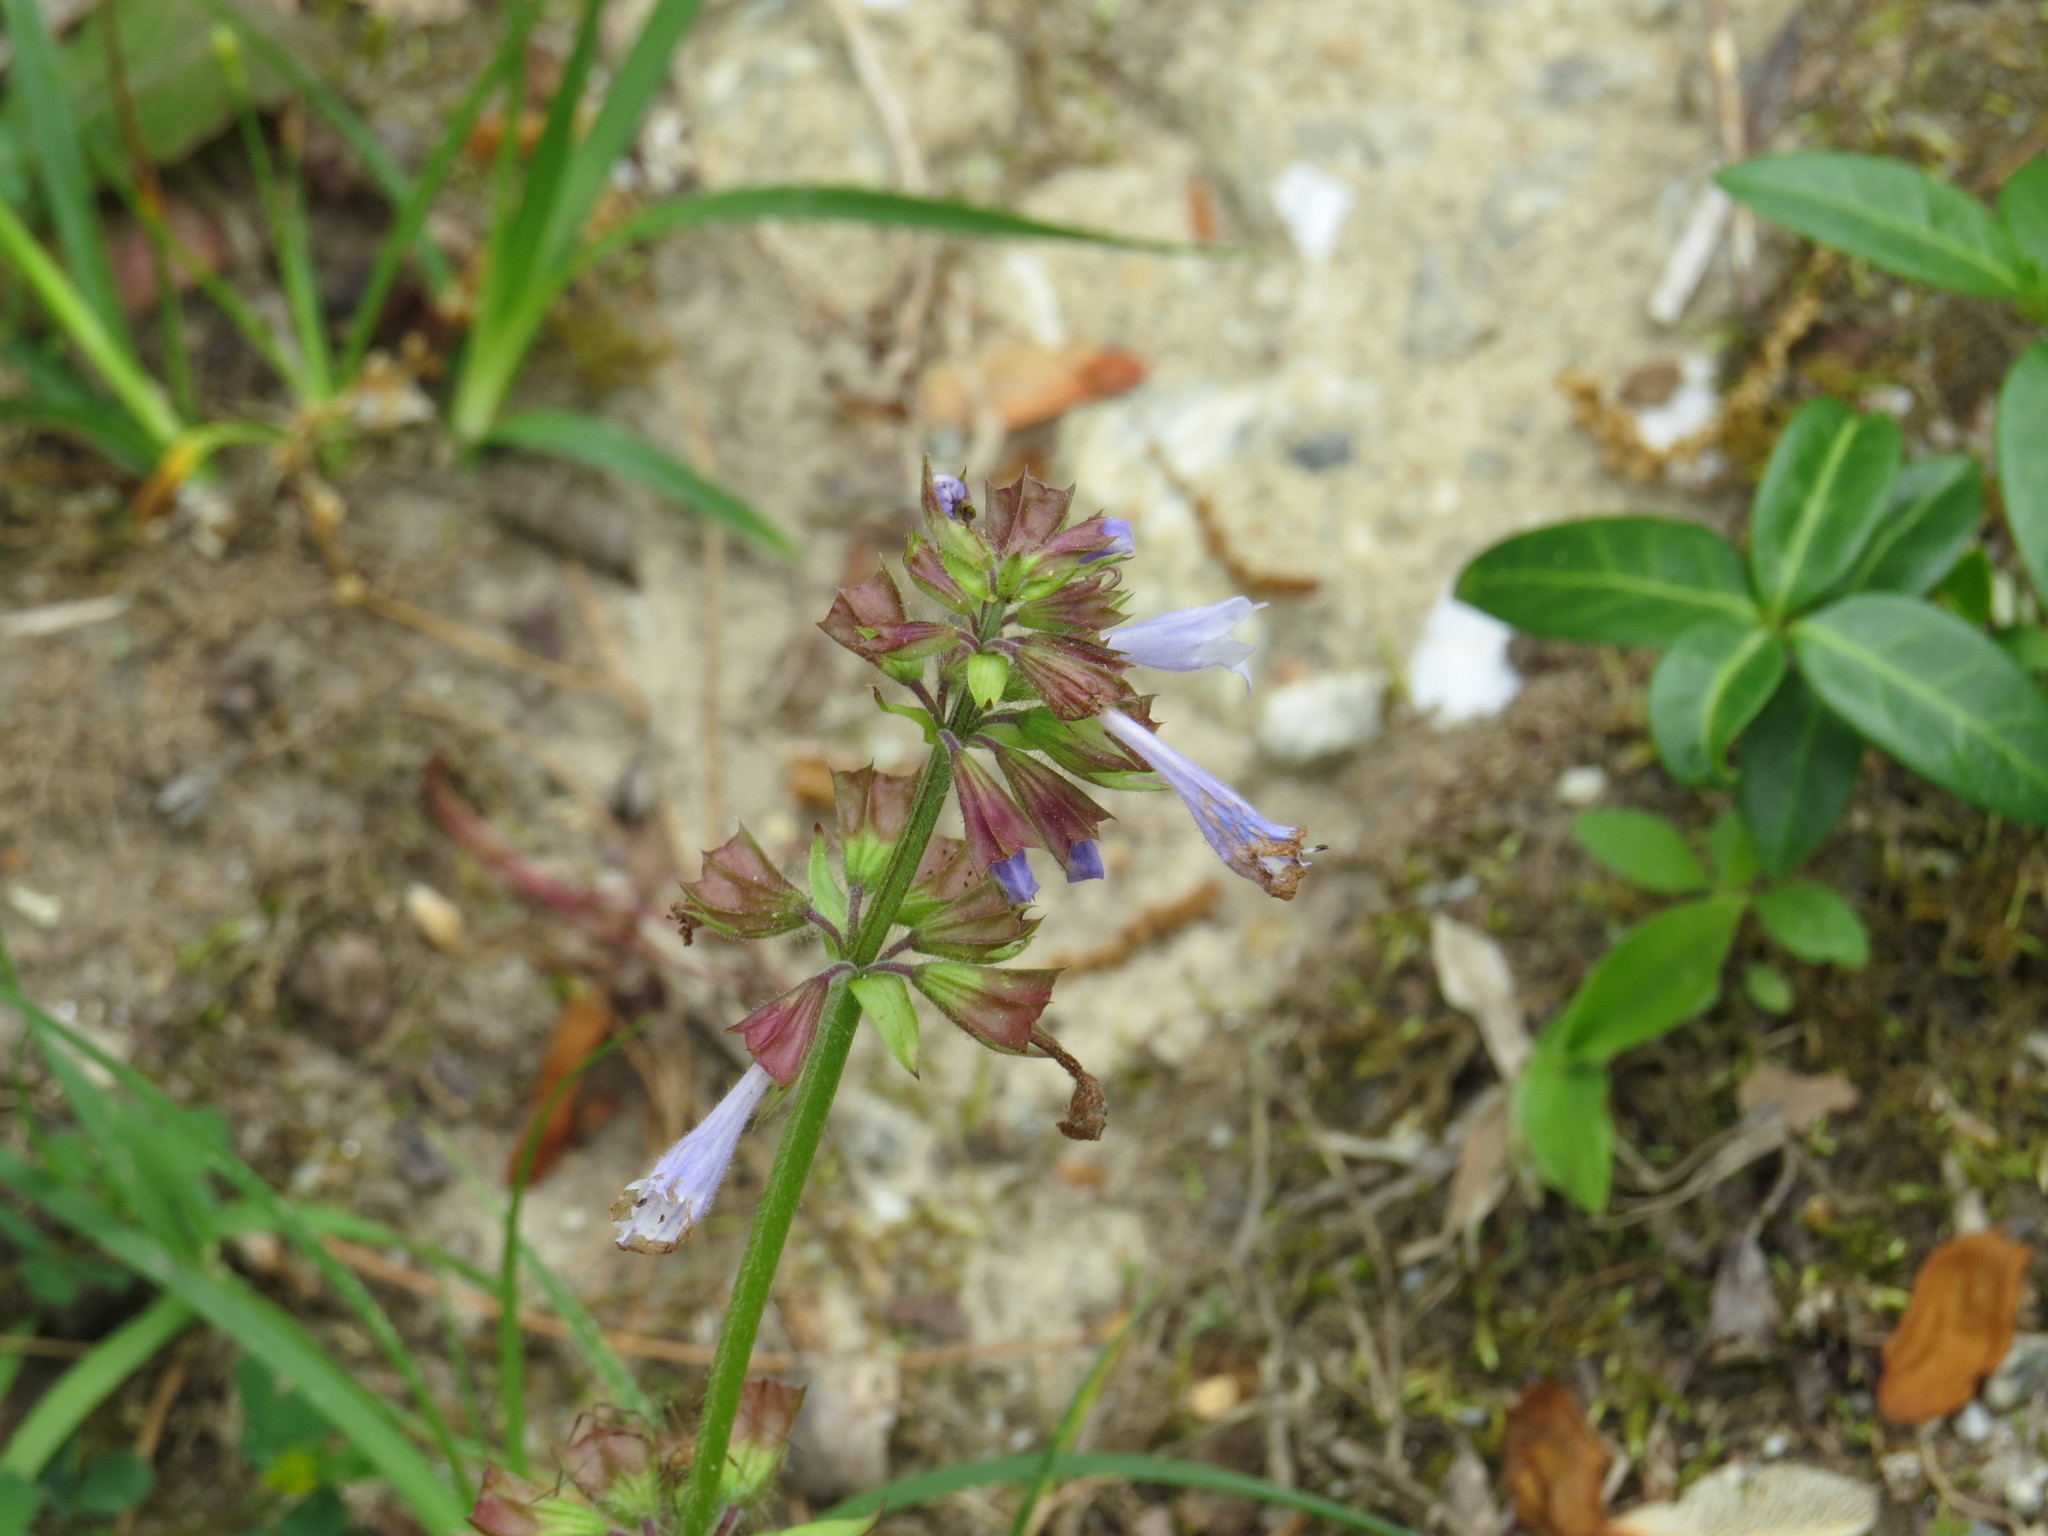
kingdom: Plantae
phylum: Tracheophyta
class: Magnoliopsida
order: Lamiales
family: Lamiaceae
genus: Salvia
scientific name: Salvia lyrata
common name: Cancerweed
